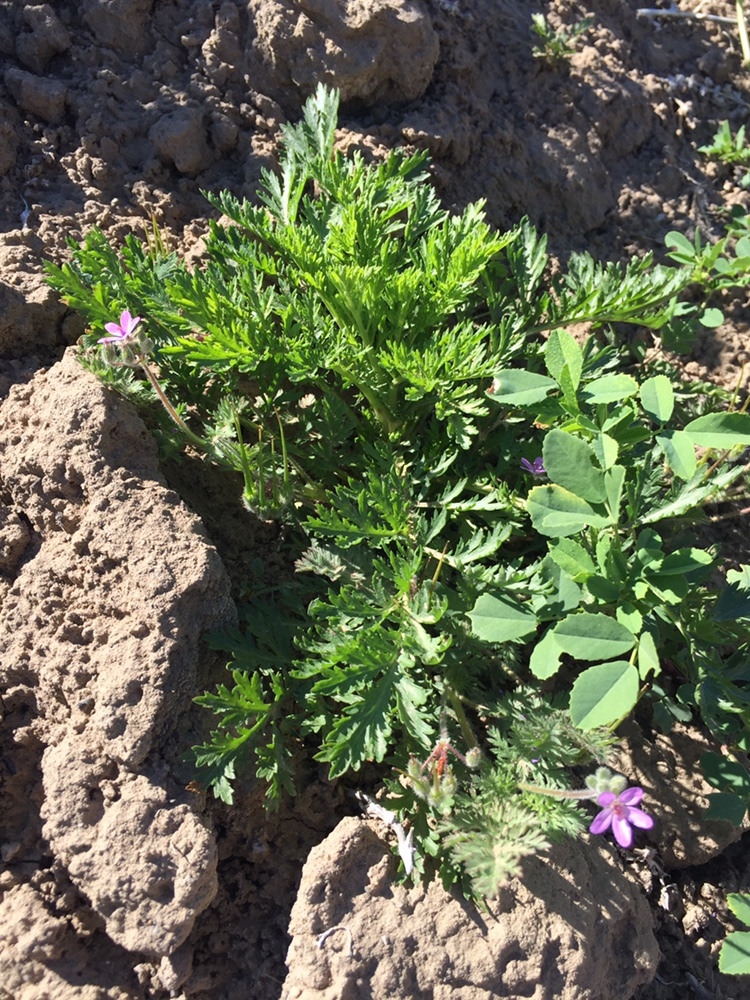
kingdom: Plantae
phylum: Tracheophyta
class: Magnoliopsida
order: Geraniales
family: Geraniaceae
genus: Erodium
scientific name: Erodium cicutarium
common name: Common stork's-bill
